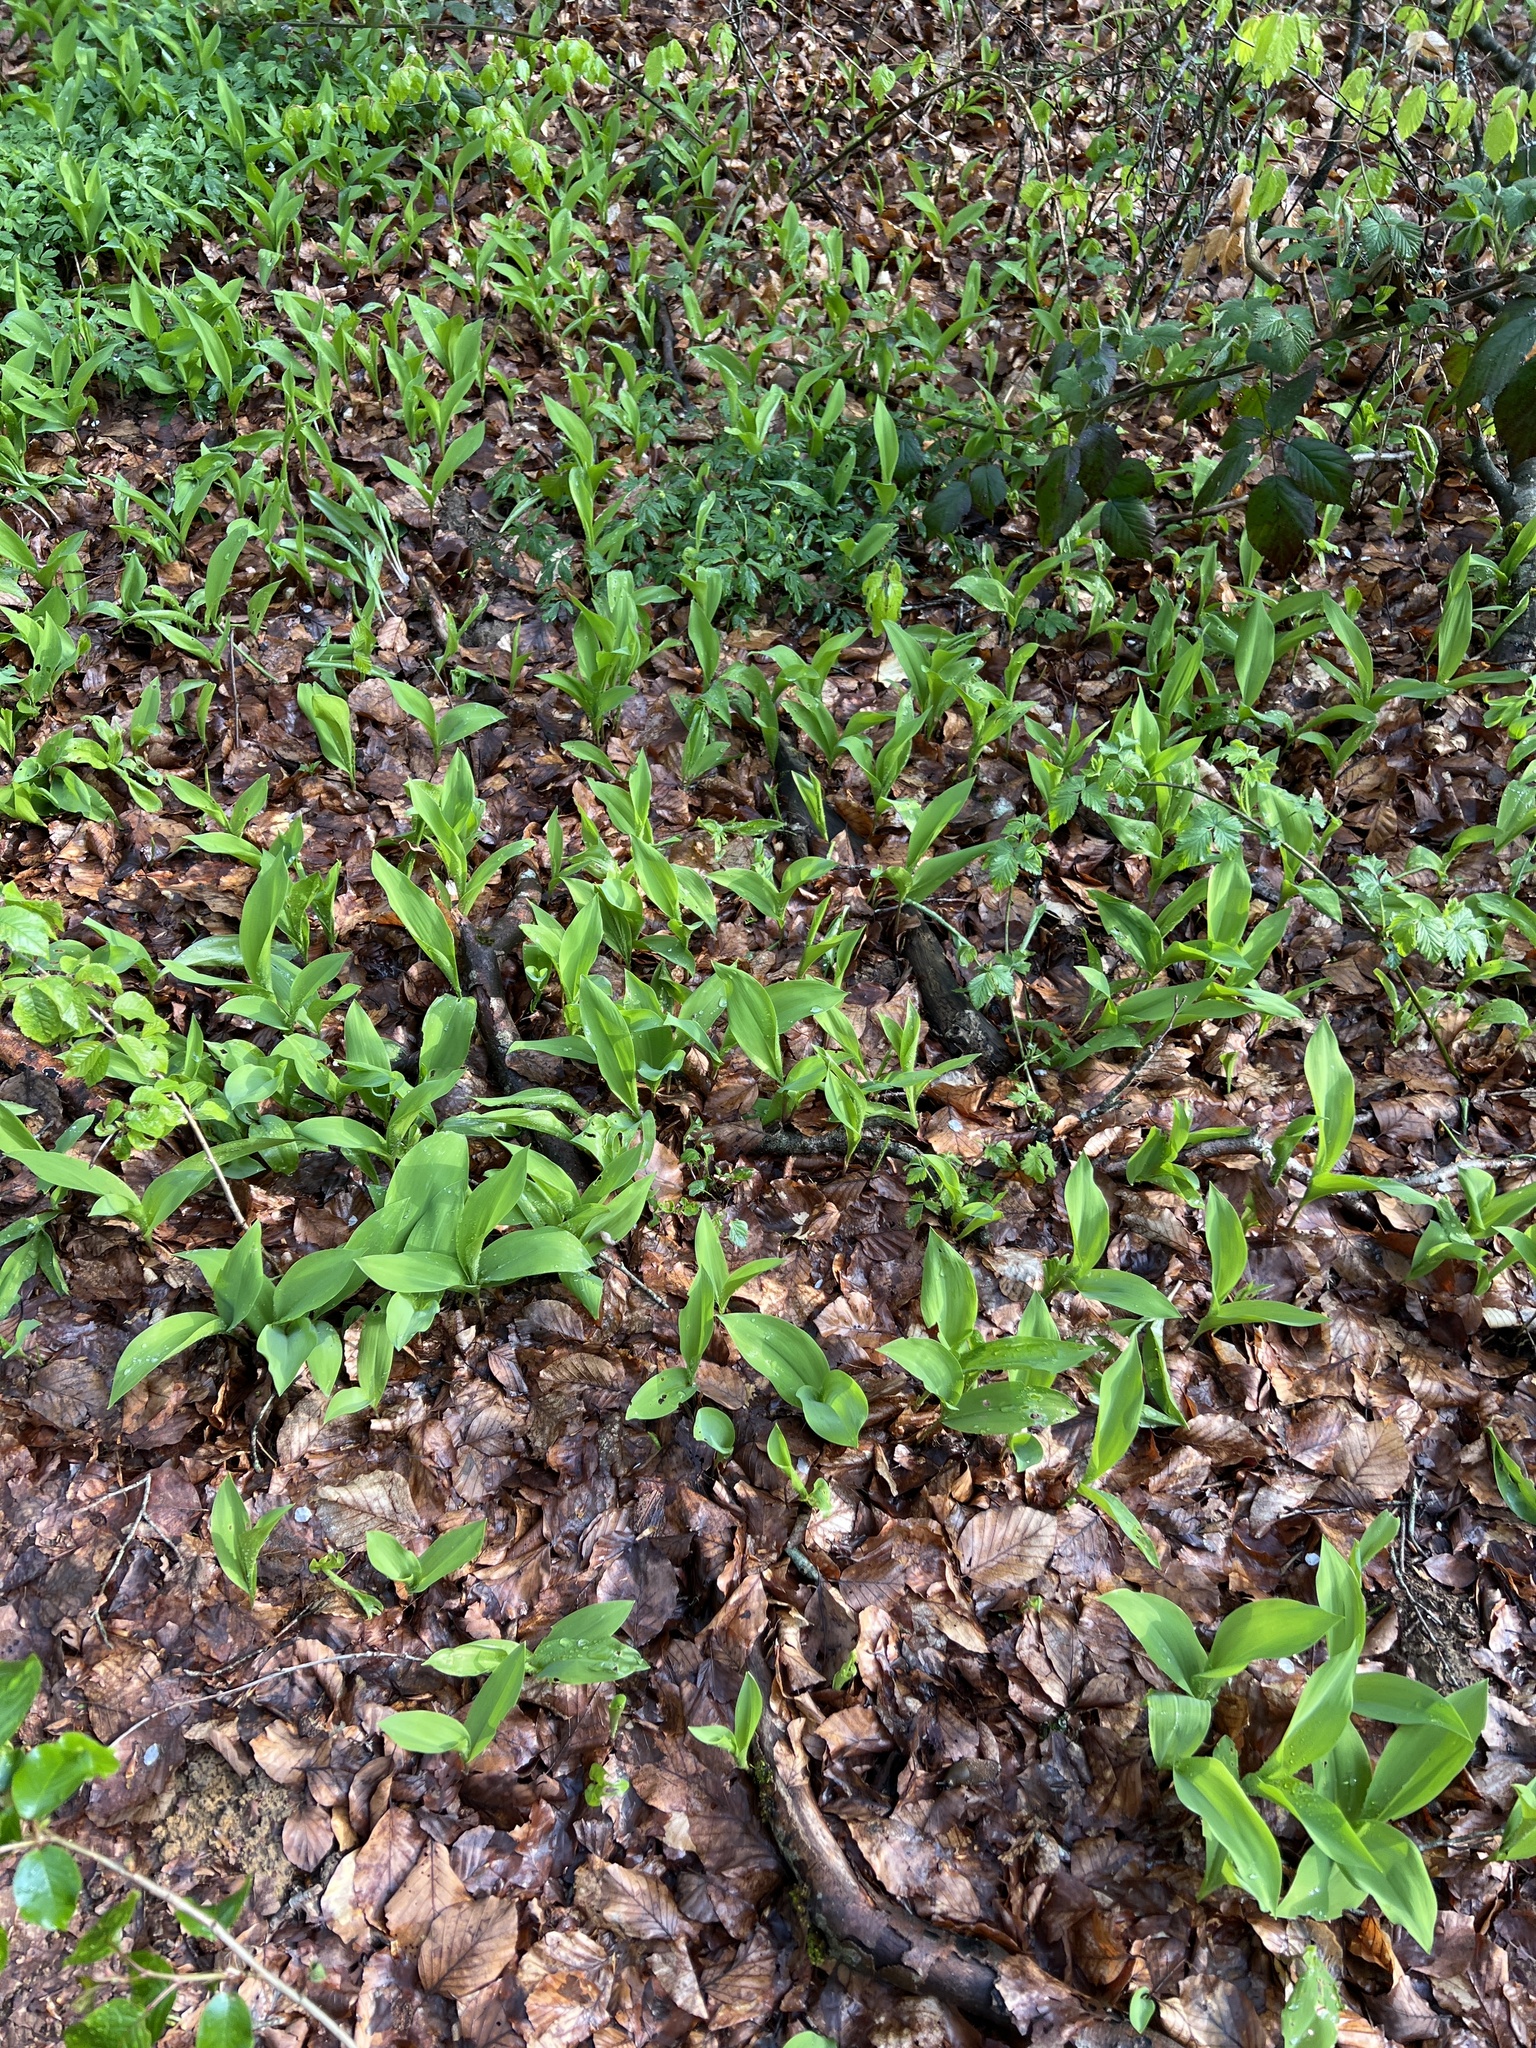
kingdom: Plantae
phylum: Tracheophyta
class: Liliopsida
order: Asparagales
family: Asparagaceae
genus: Convallaria
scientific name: Convallaria majalis
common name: Lily-of-the-valley
